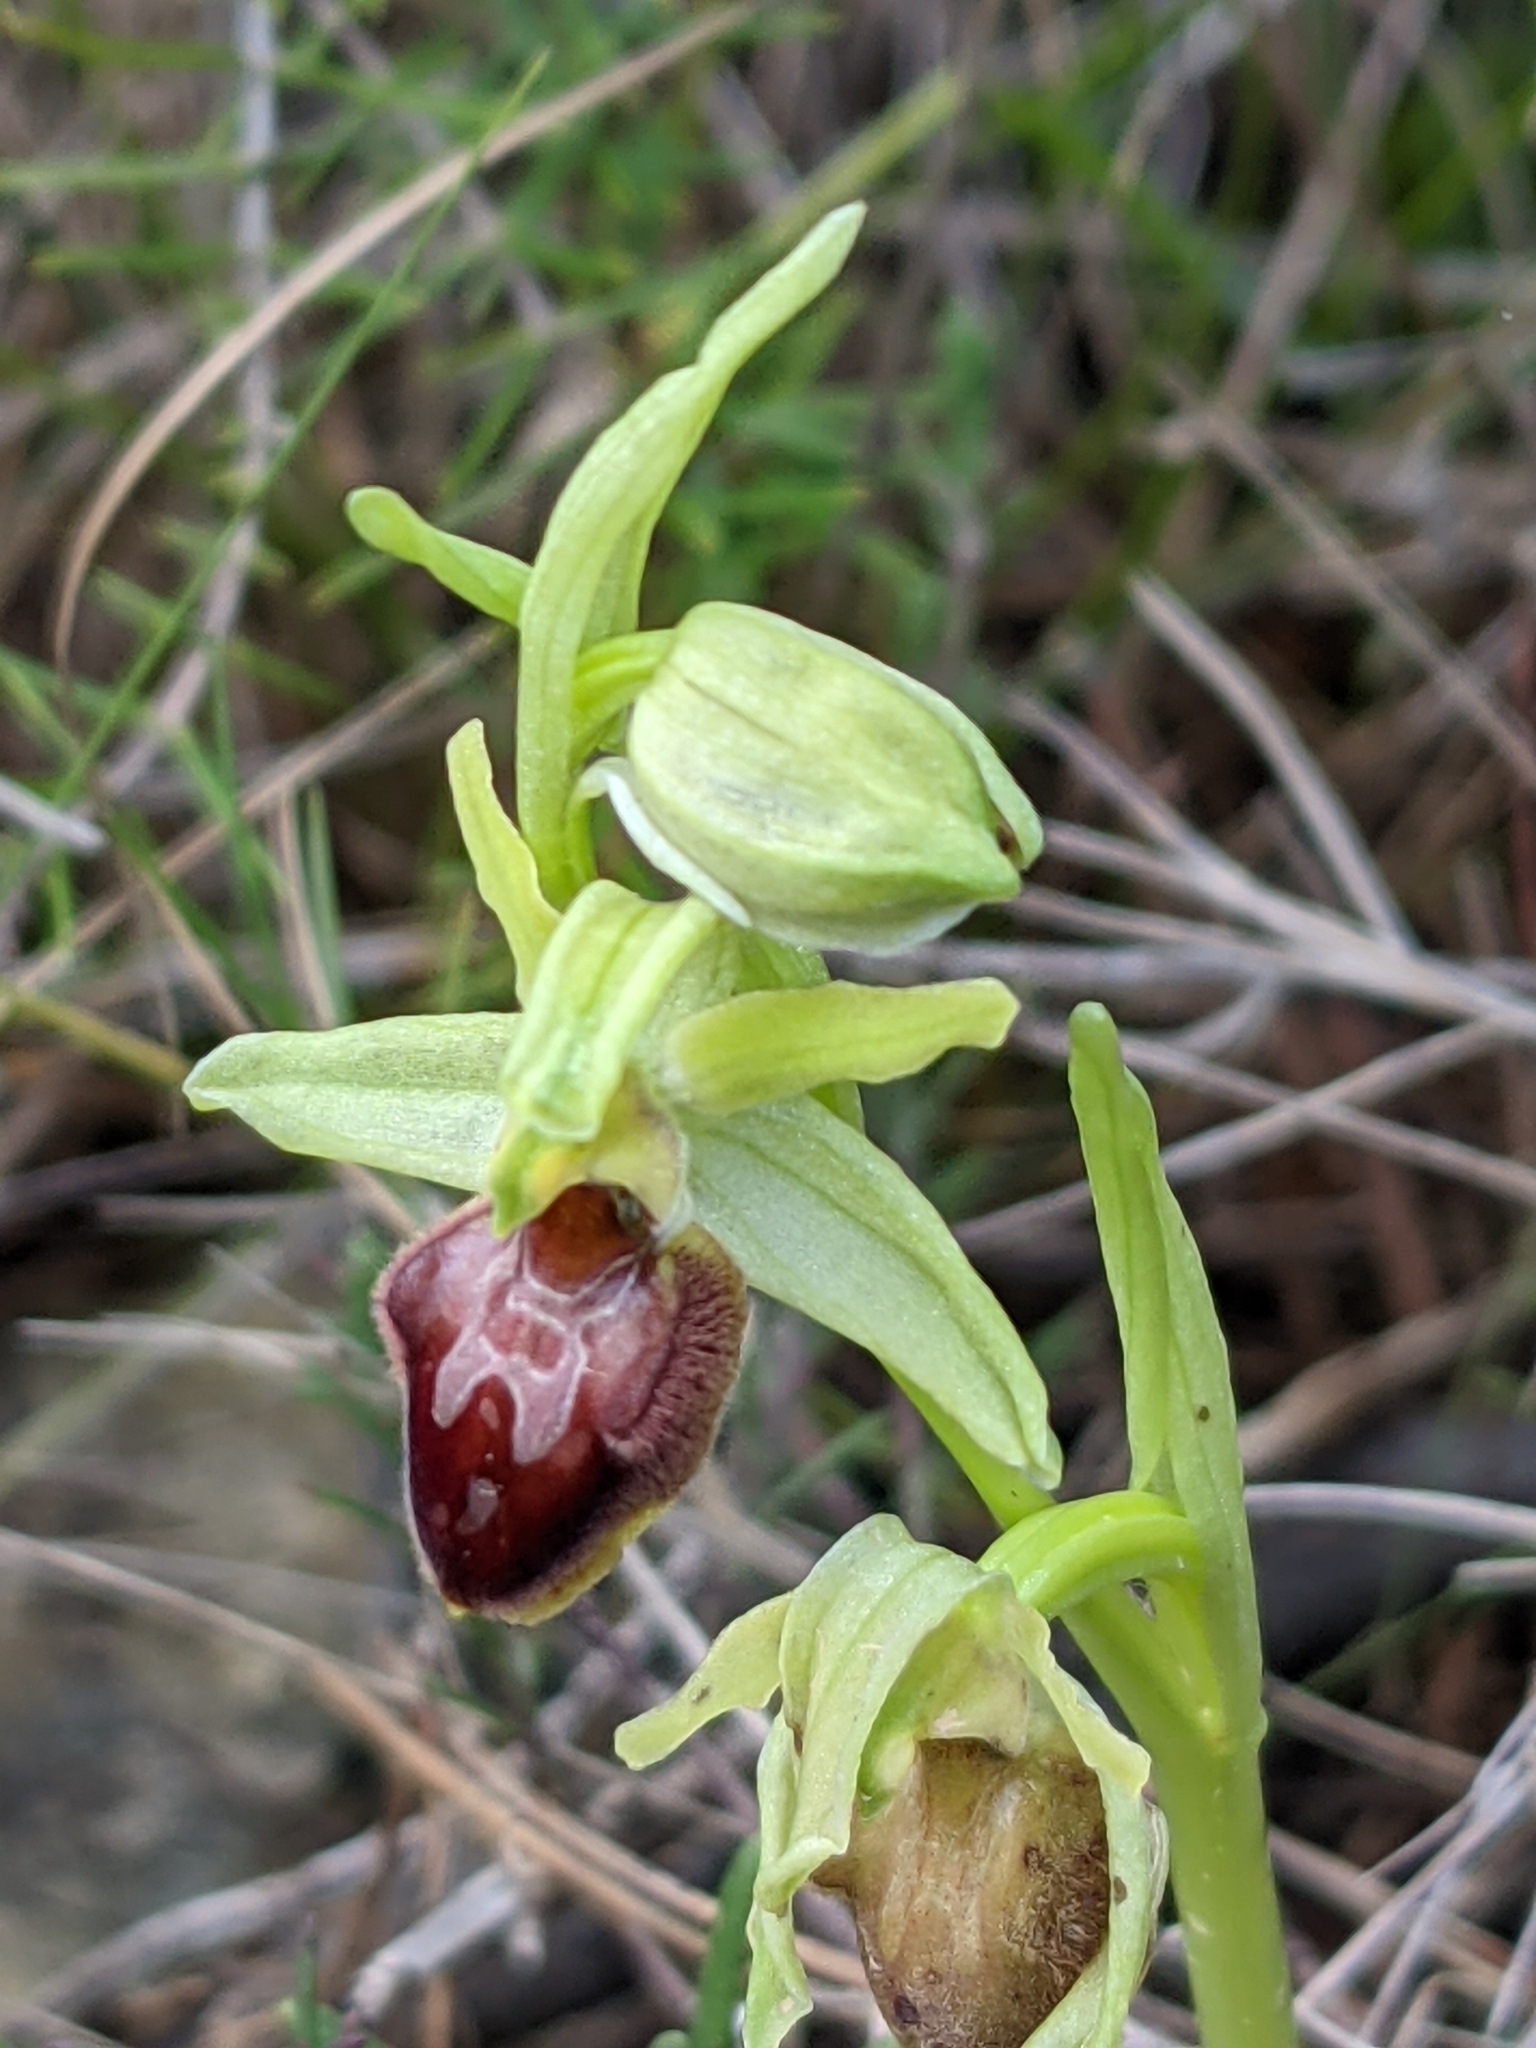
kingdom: Plantae
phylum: Tracheophyta
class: Liliopsida
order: Asparagales
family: Orchidaceae
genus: Ophrys
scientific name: Ophrys sphegodes
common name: Early spider-orchid
